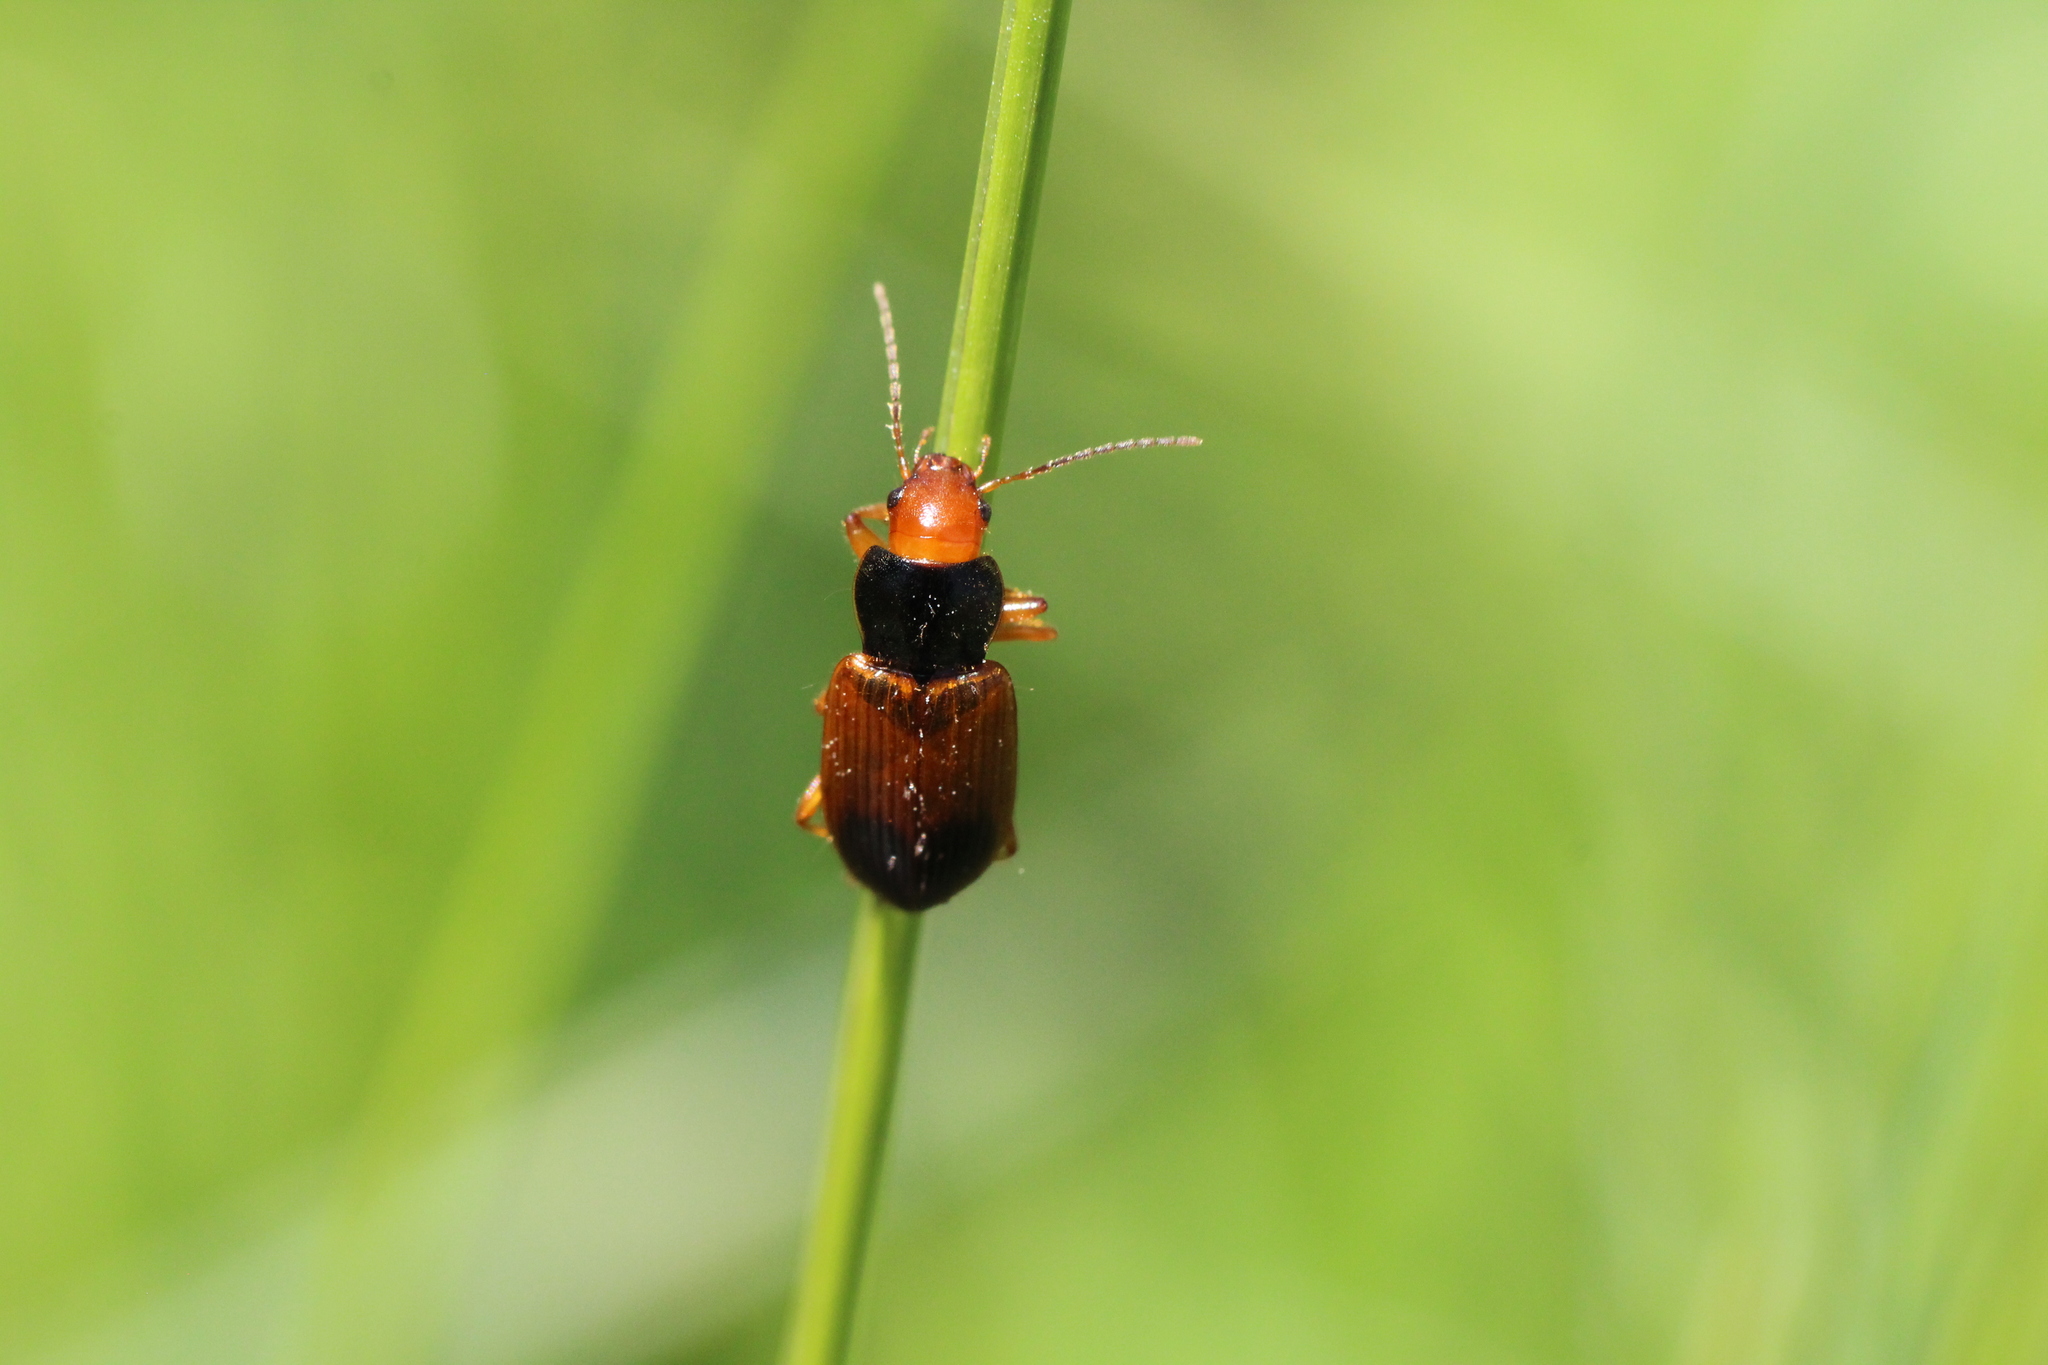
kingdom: Animalia
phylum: Arthropoda
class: Insecta
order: Coleoptera
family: Carabidae
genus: Diachromus
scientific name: Diachromus germanus
